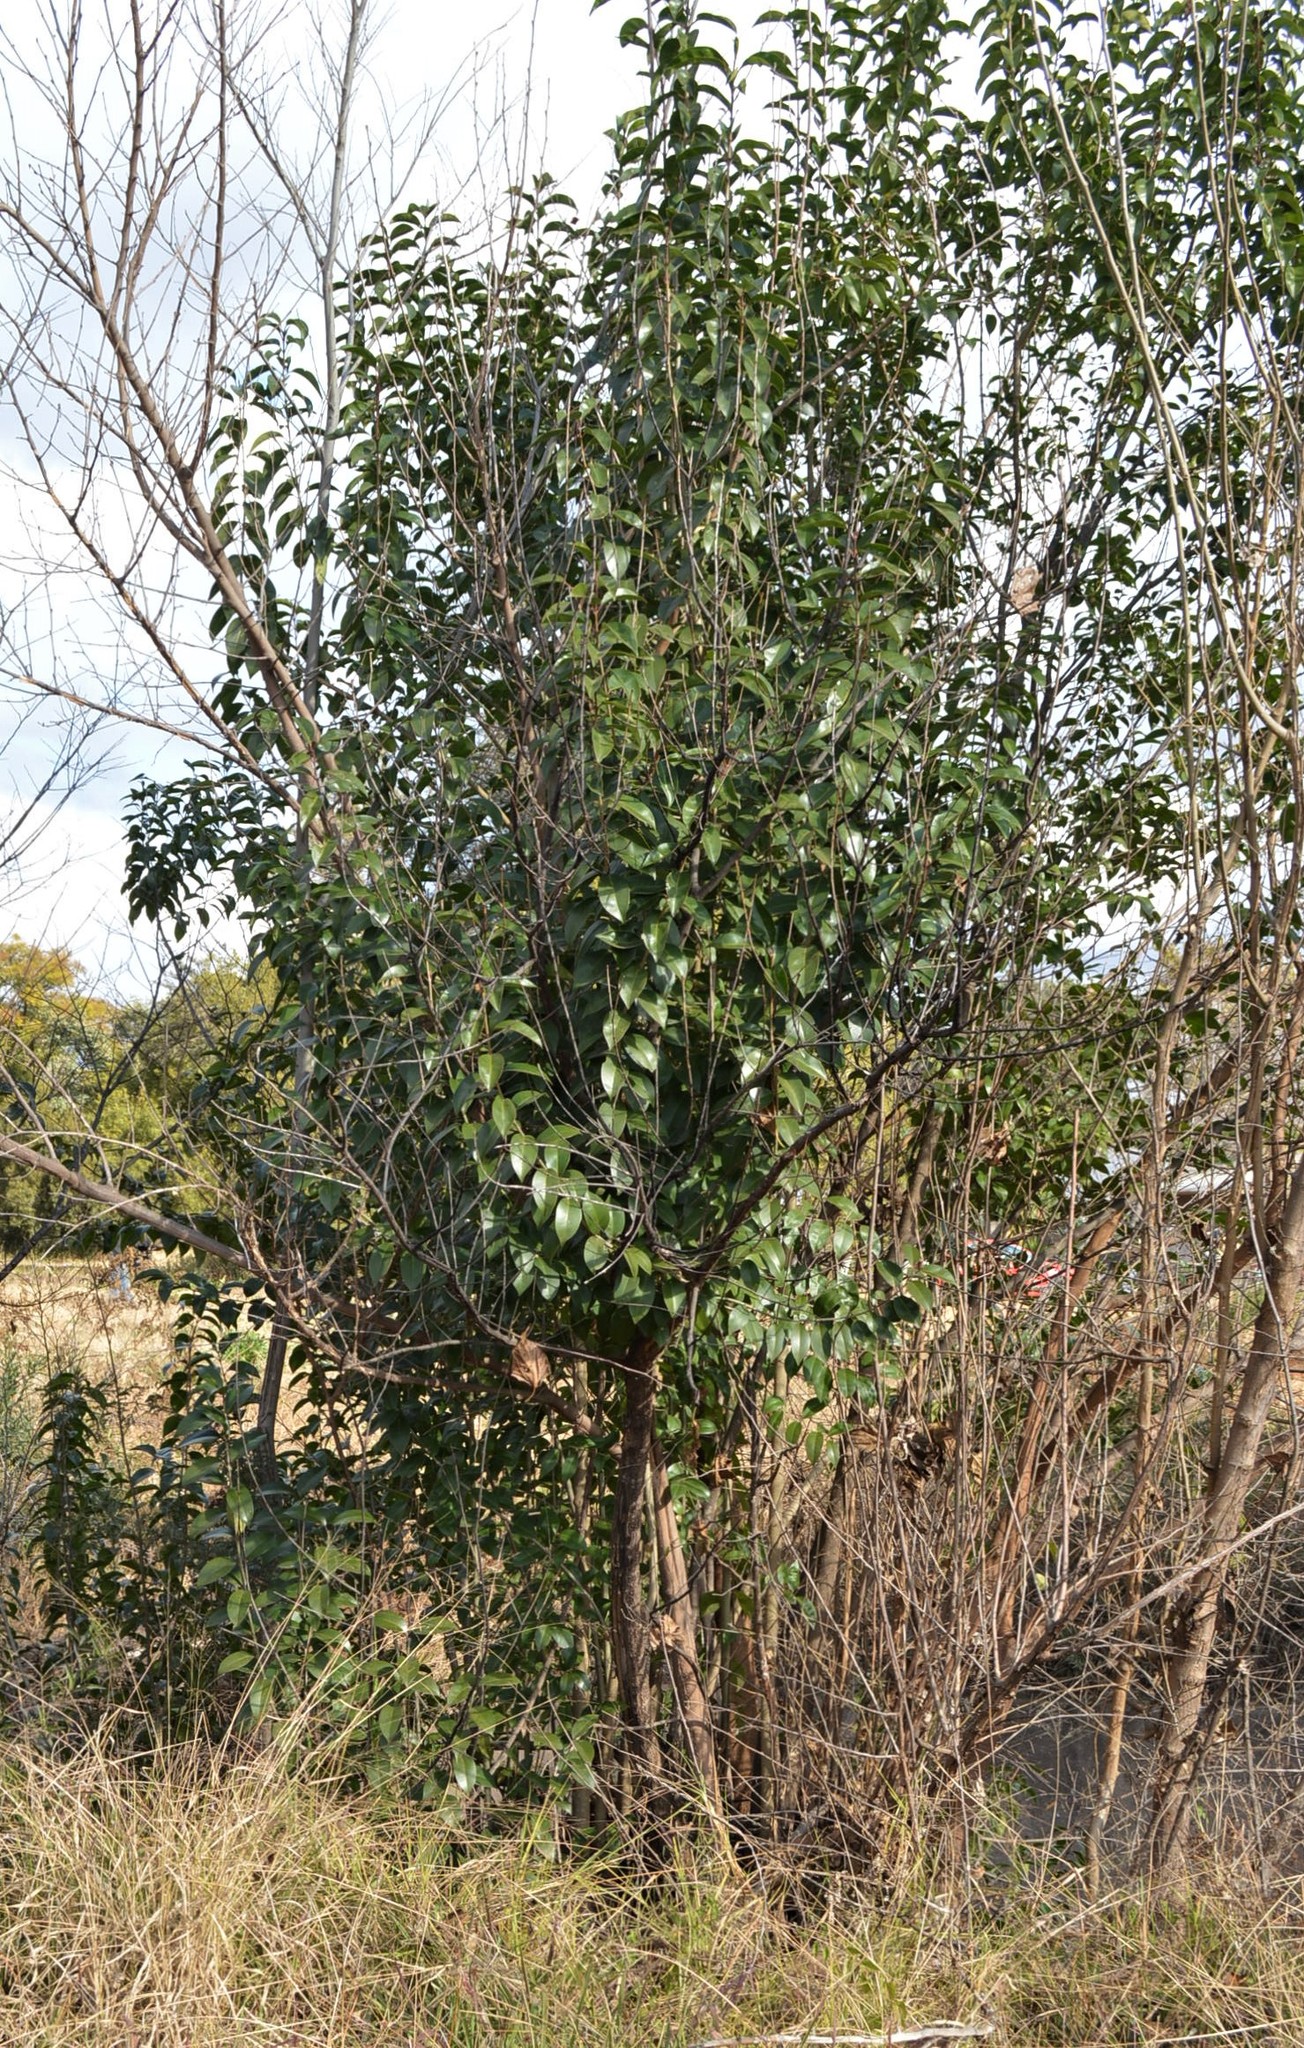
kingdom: Plantae
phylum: Tracheophyta
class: Magnoliopsida
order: Lamiales
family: Oleaceae
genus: Ligustrum
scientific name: Ligustrum lucidum
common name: Glossy privet
